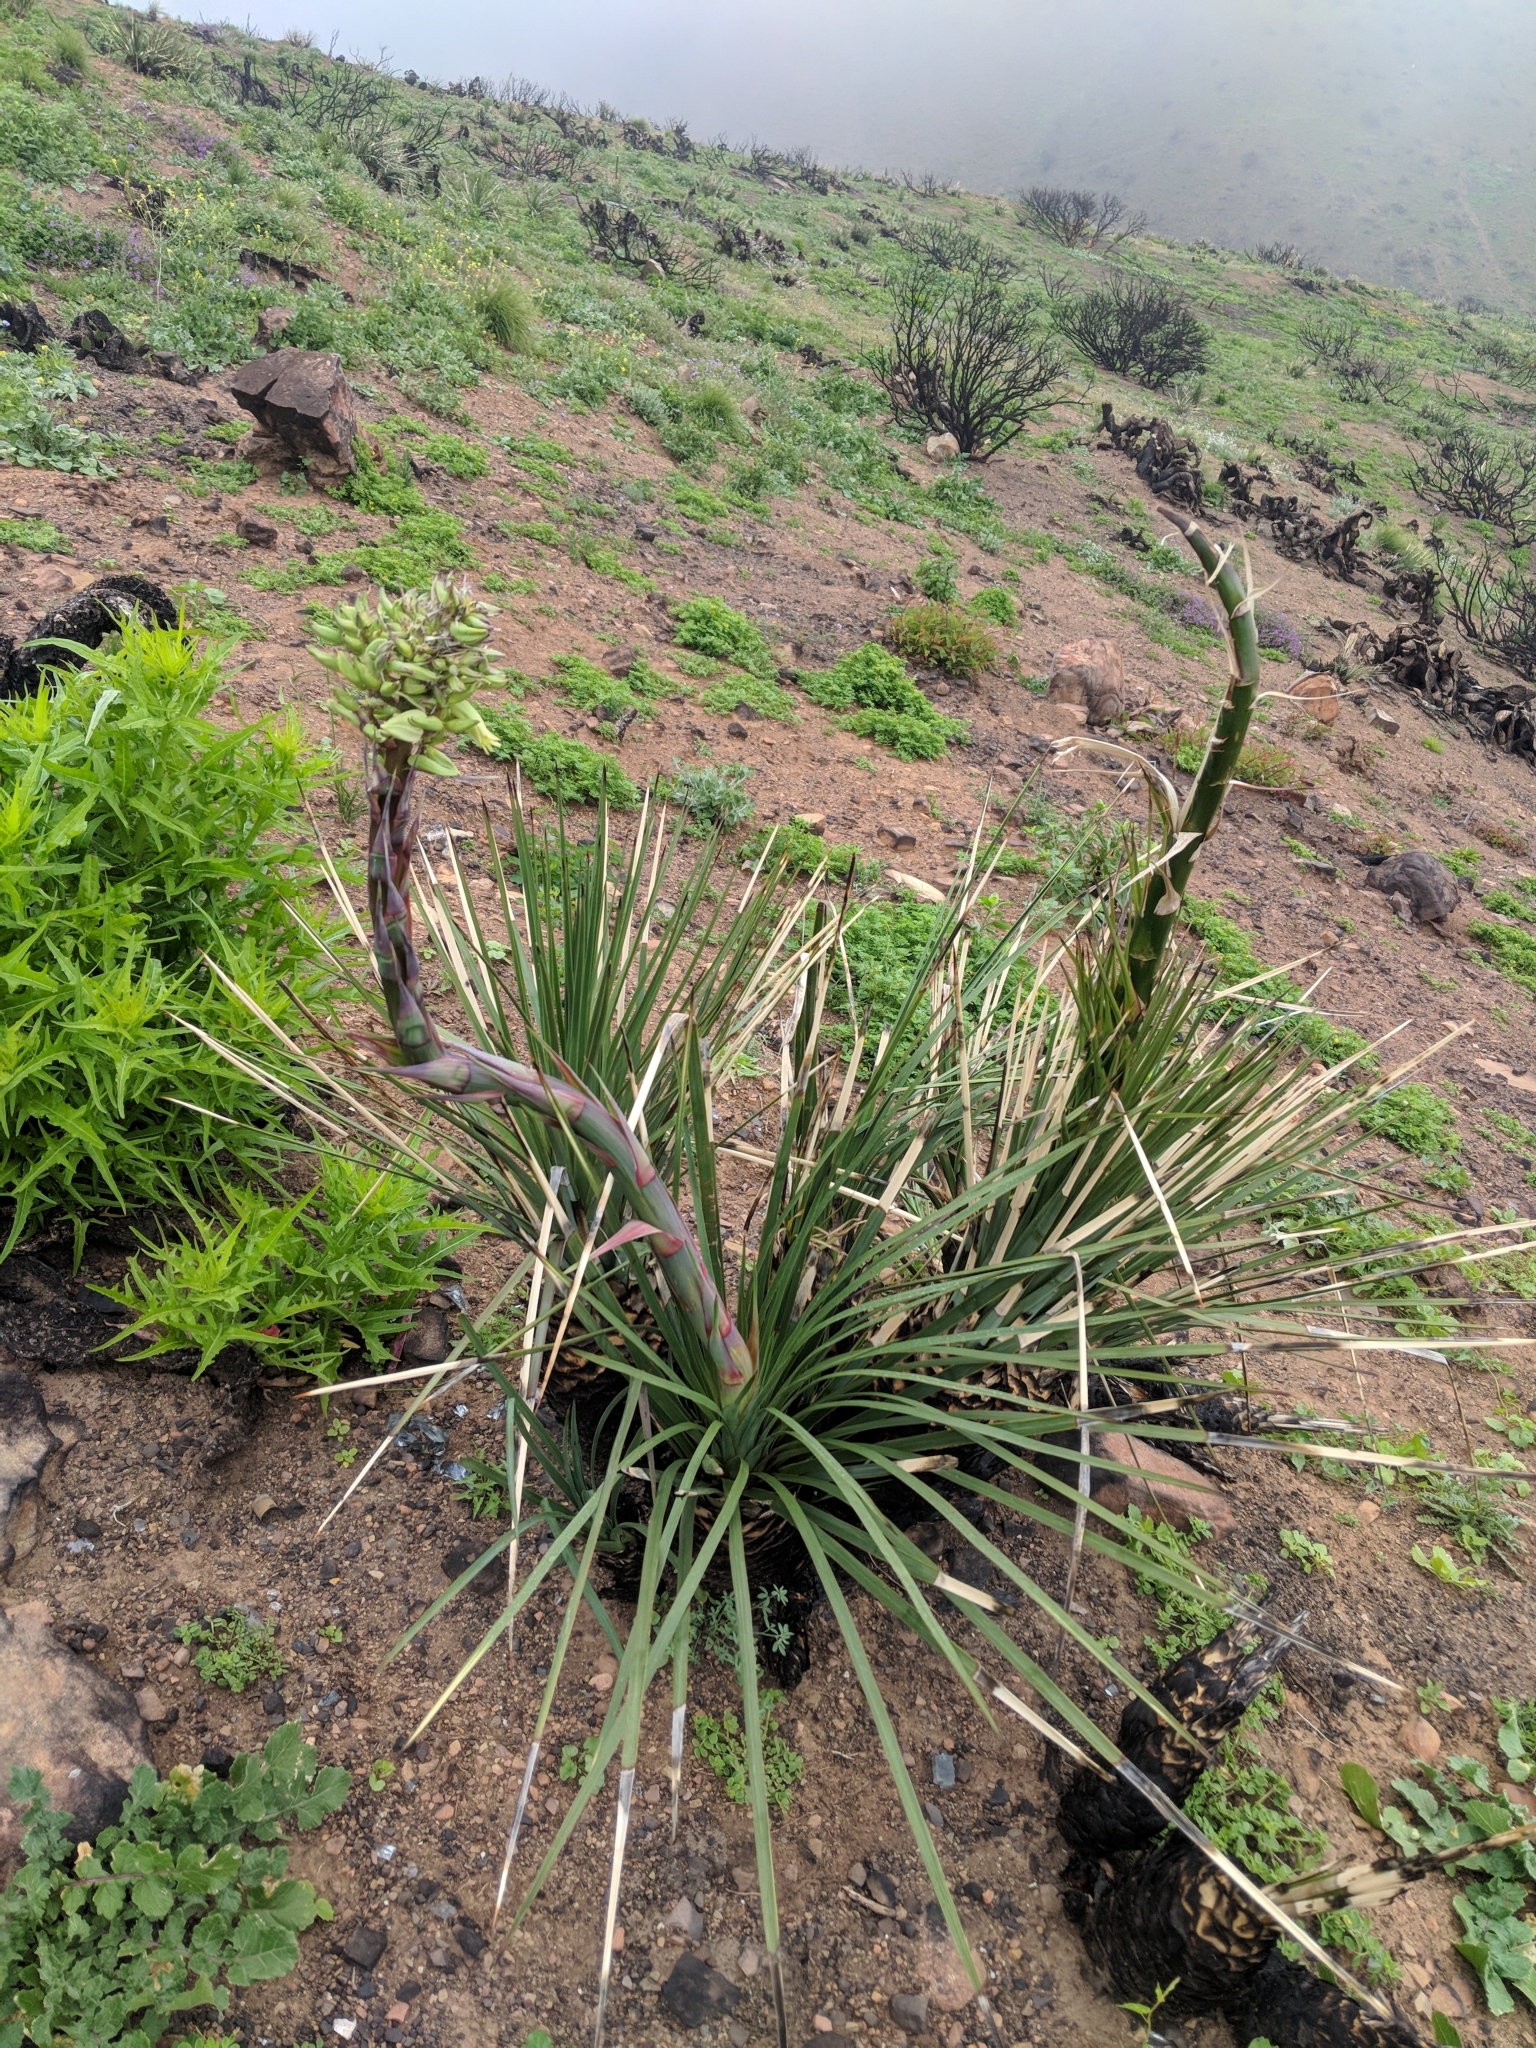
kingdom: Plantae
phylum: Tracheophyta
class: Liliopsida
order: Asparagales
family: Asparagaceae
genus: Hesperoyucca
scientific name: Hesperoyucca whipplei
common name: Our lord's-candle
